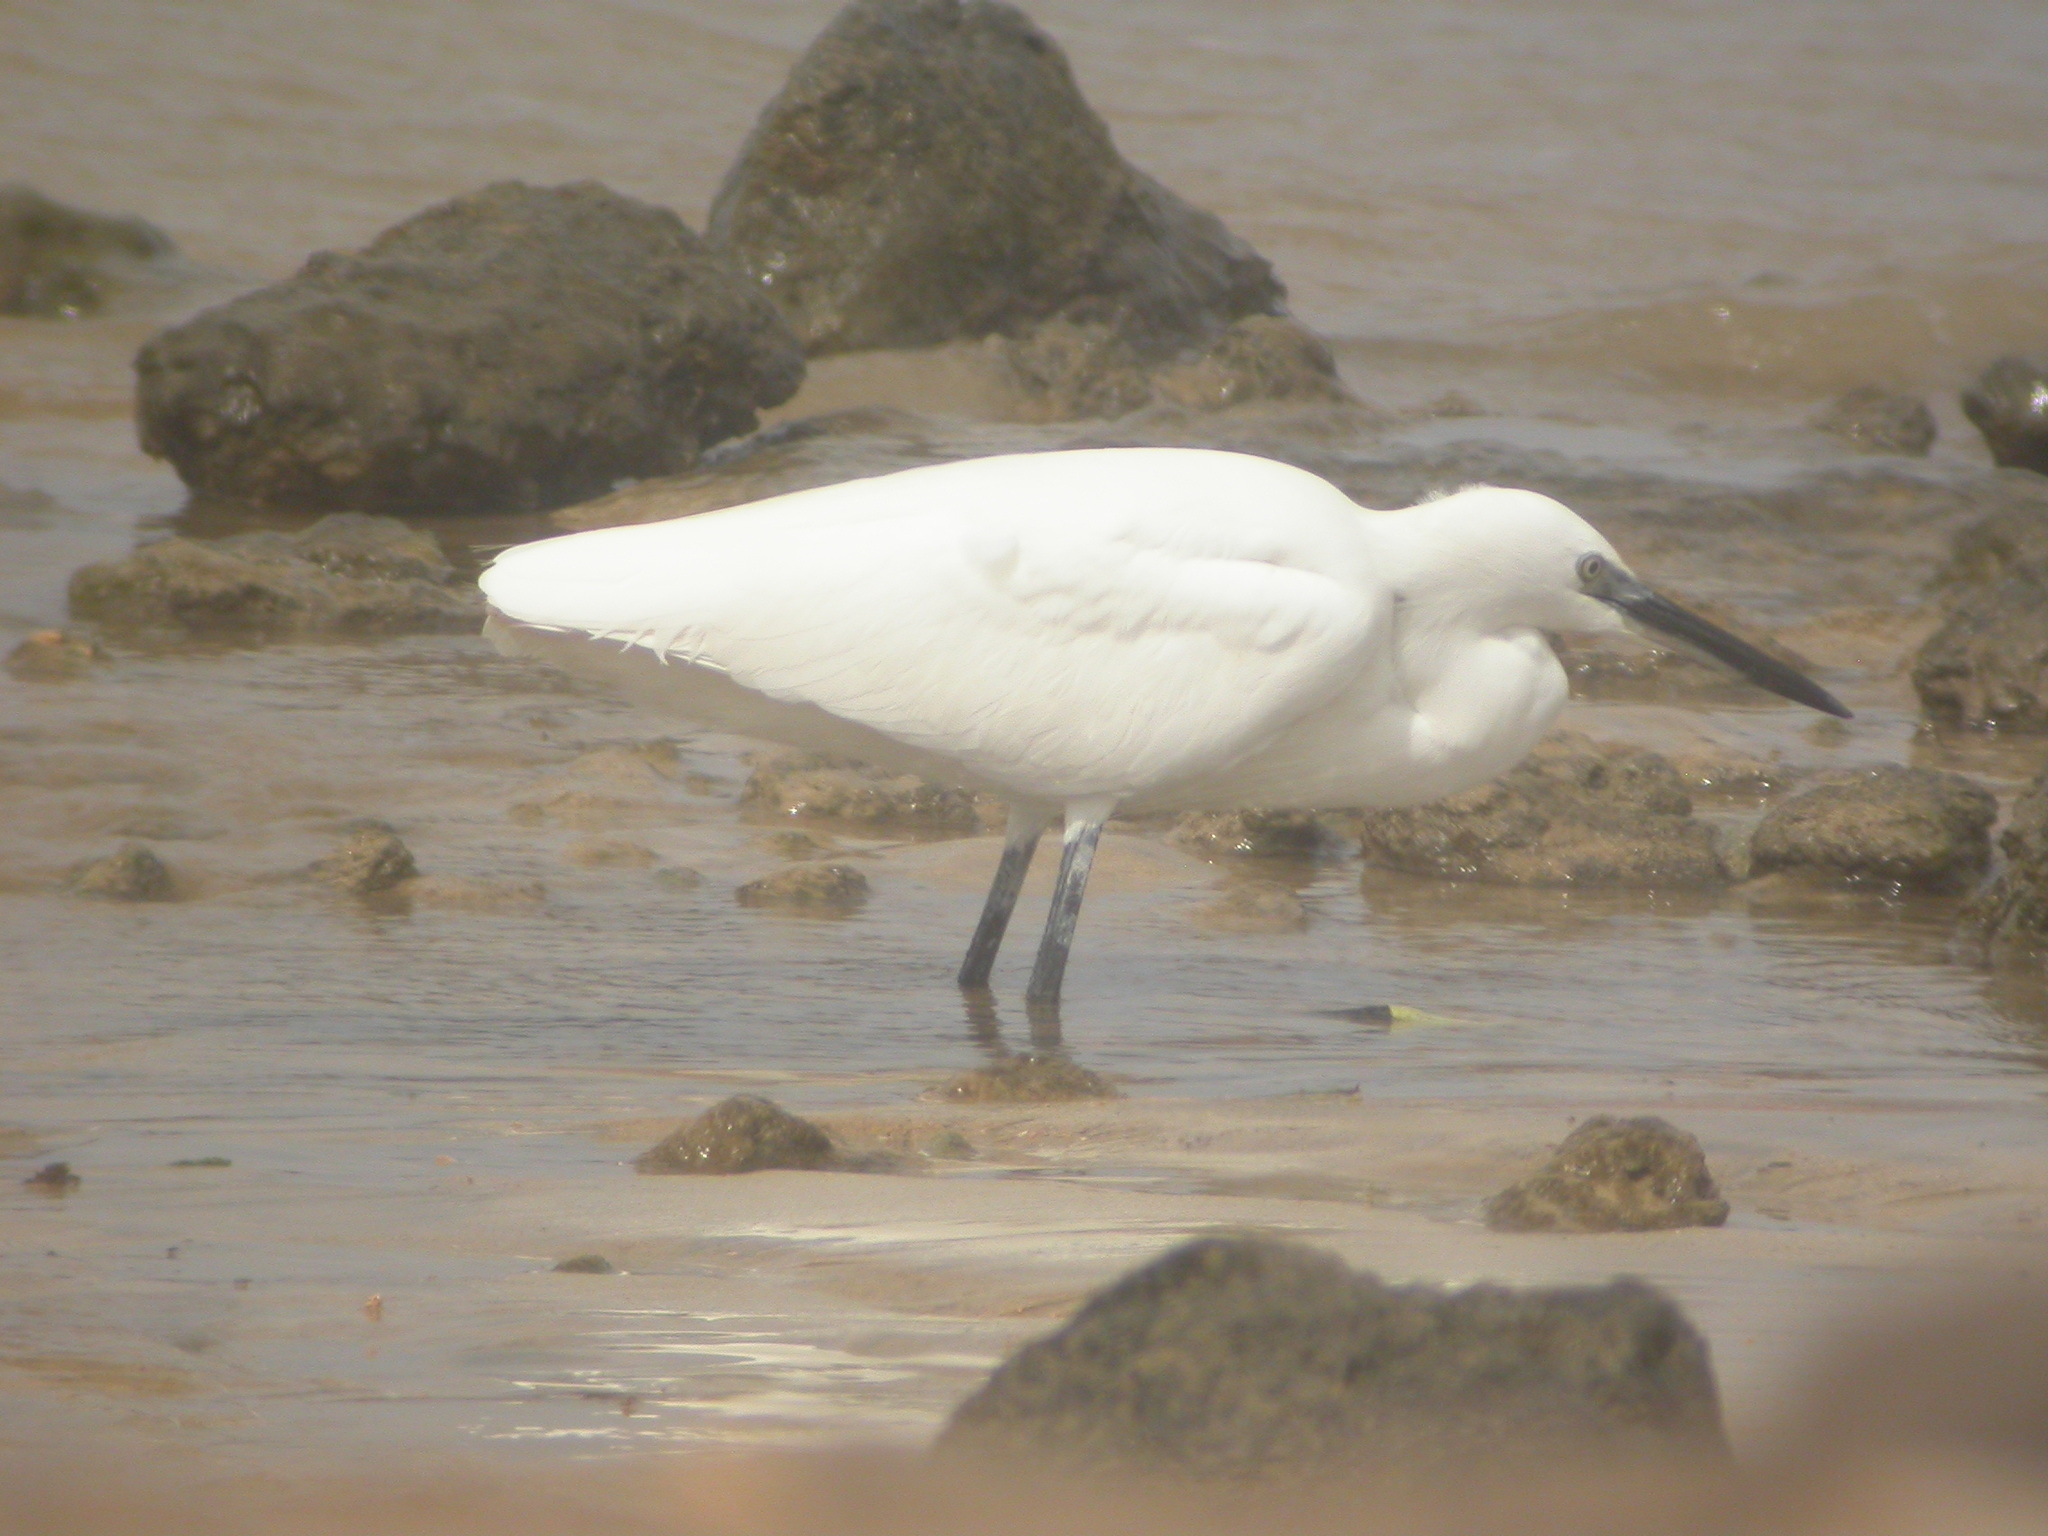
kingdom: Animalia
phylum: Chordata
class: Aves
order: Pelecaniformes
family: Ardeidae
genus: Egretta
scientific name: Egretta garzetta
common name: Little egret
